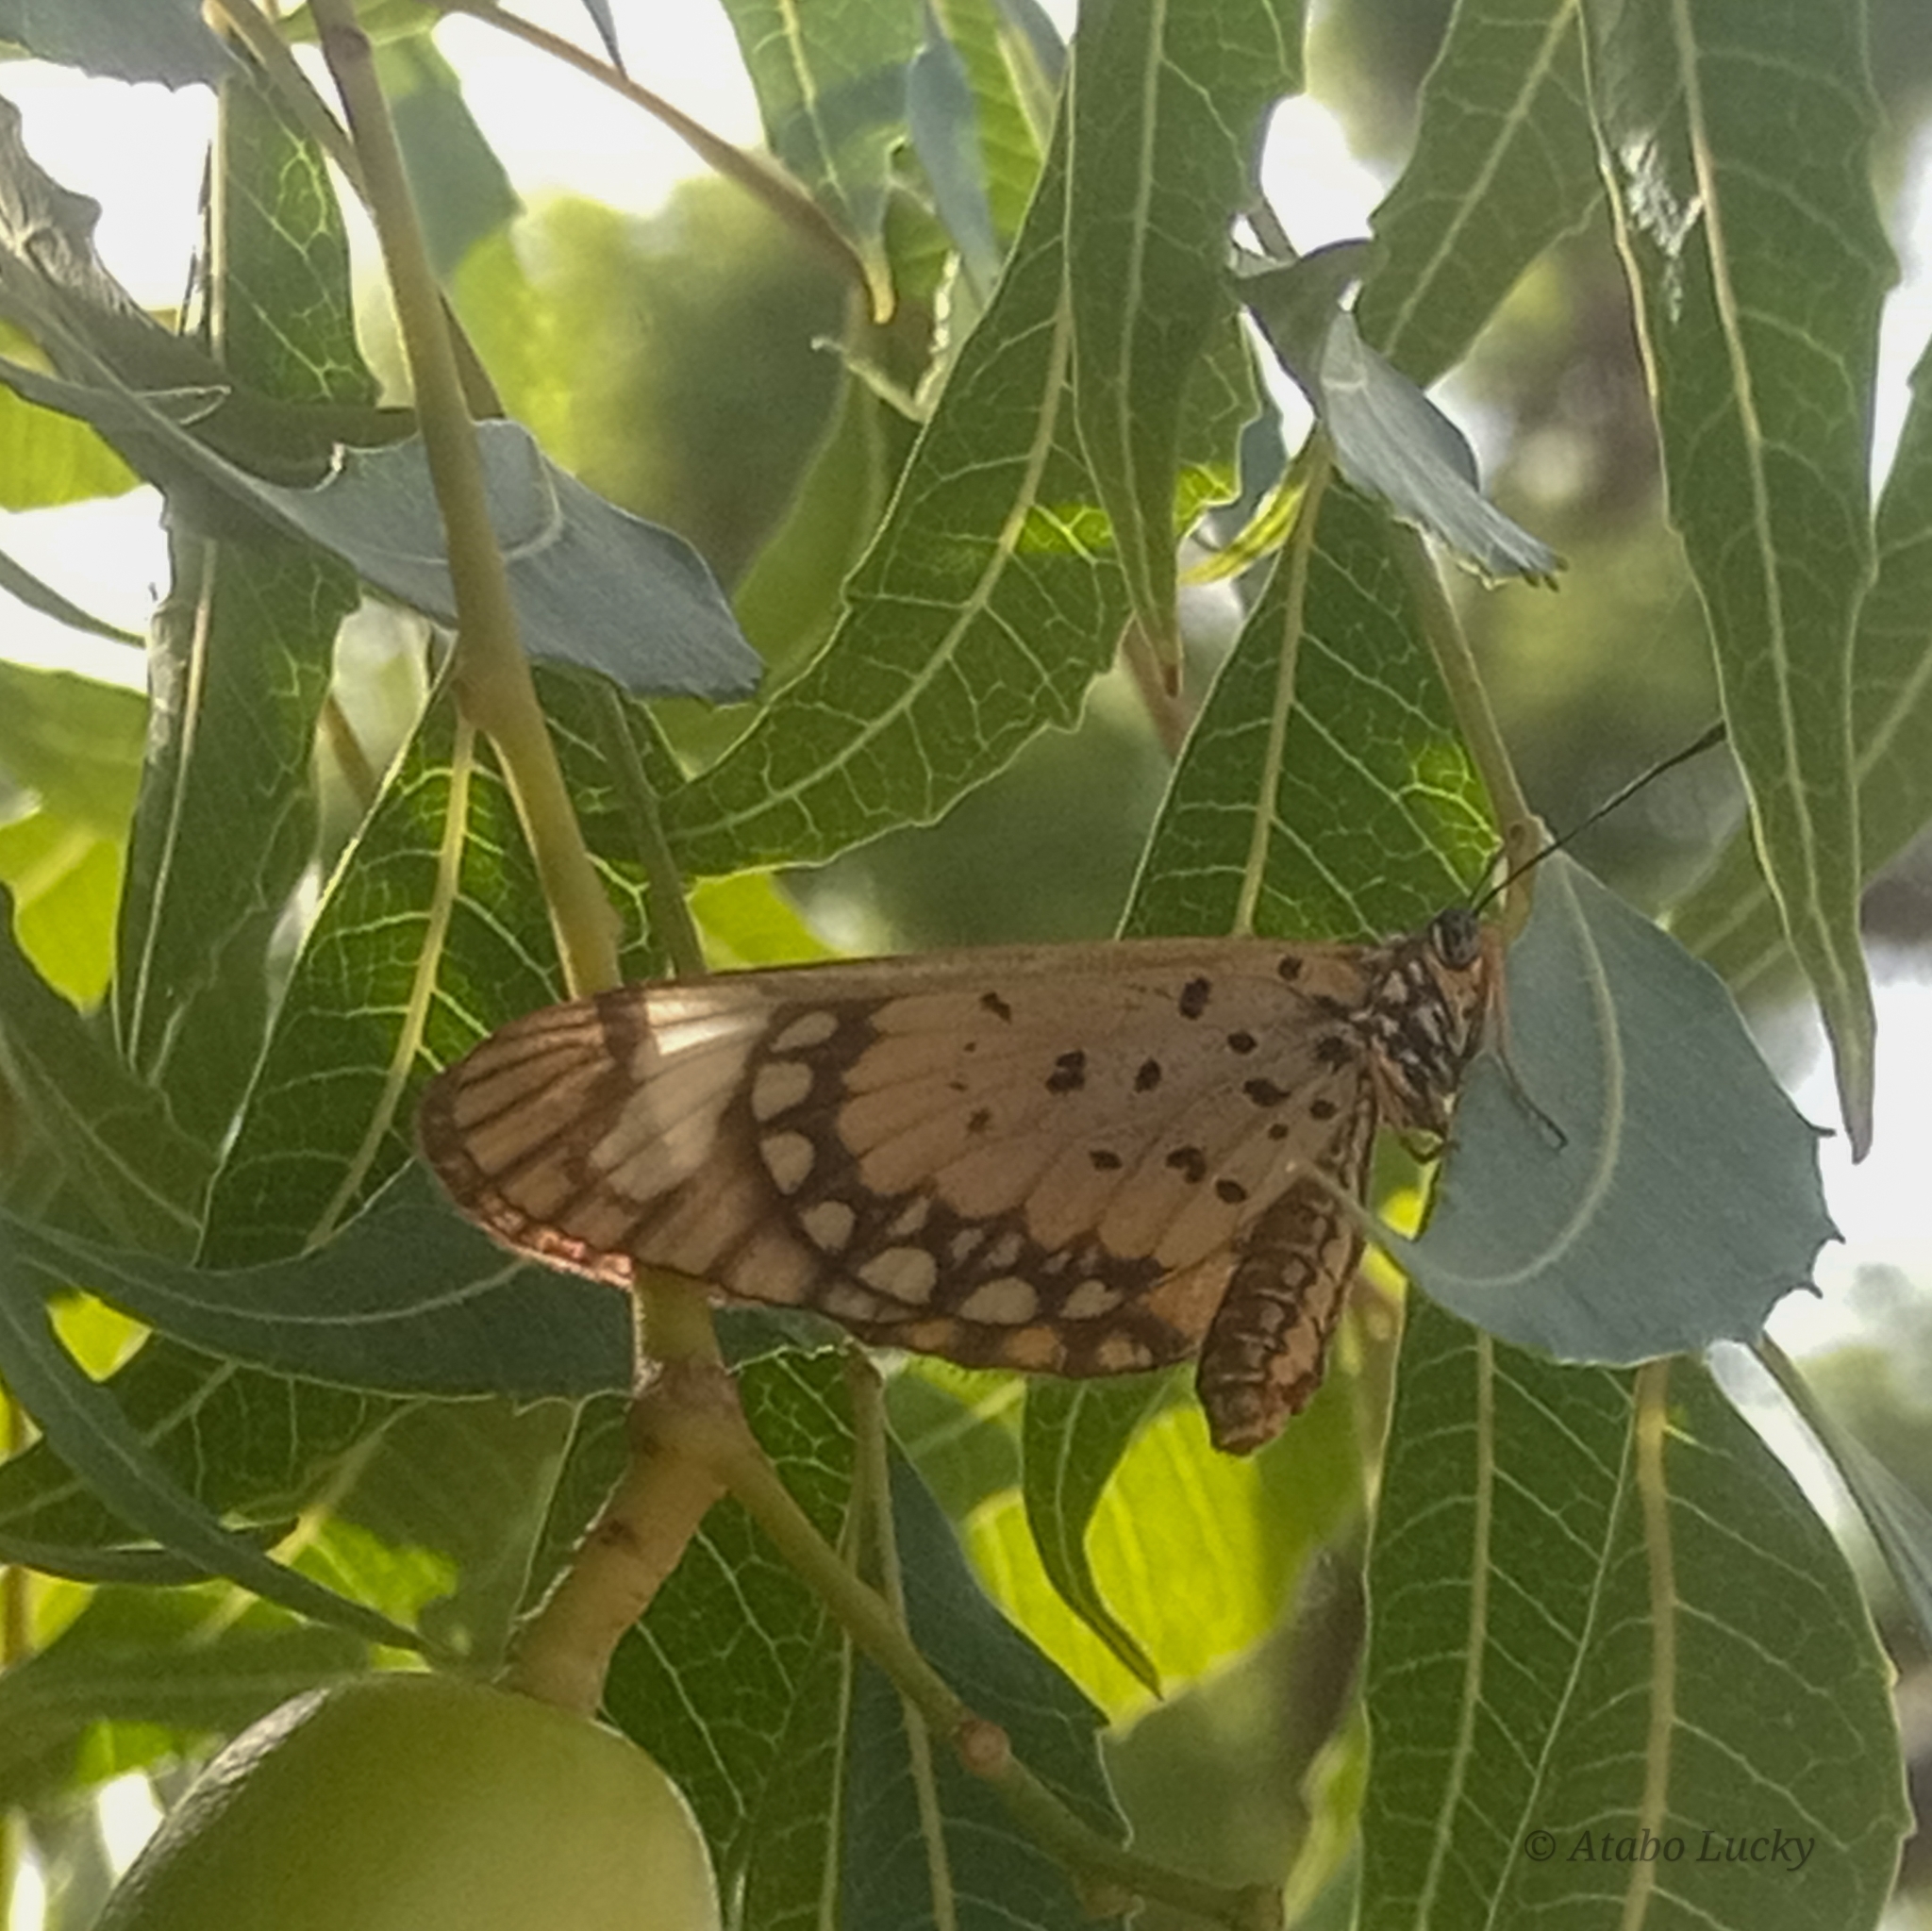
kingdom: Animalia
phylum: Arthropoda
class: Insecta
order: Lepidoptera
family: Nymphalidae
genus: Acraea
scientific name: Acraea Telchinia serena
